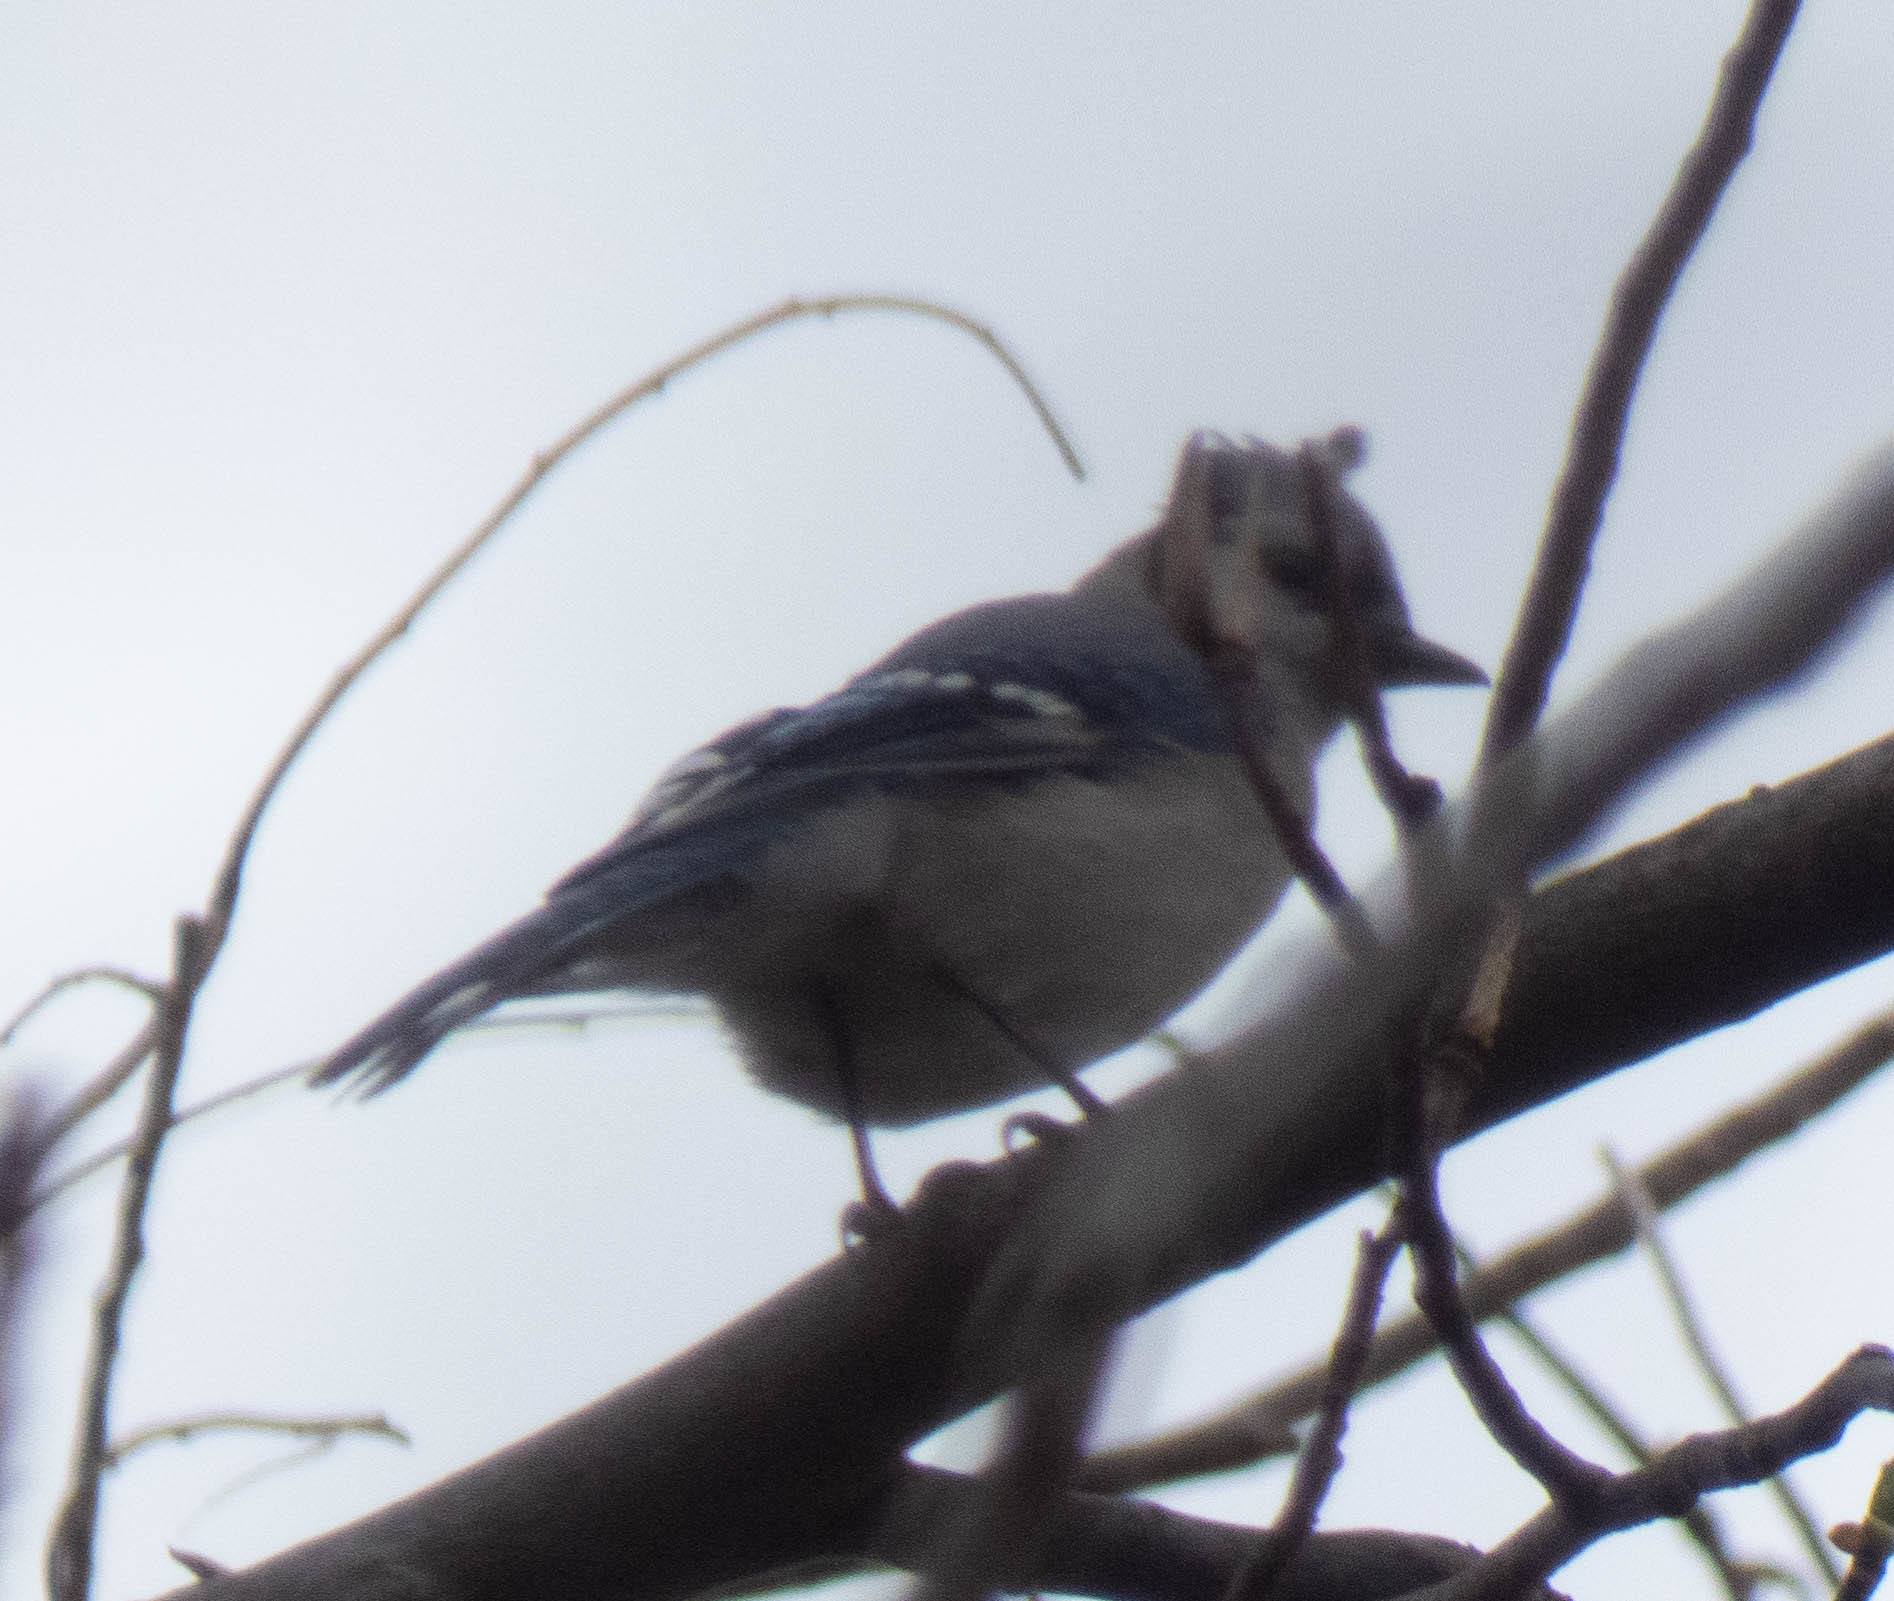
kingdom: Animalia
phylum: Chordata
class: Aves
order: Passeriformes
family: Corvidae
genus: Cyanocitta
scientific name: Cyanocitta cristata
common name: Blue jay
